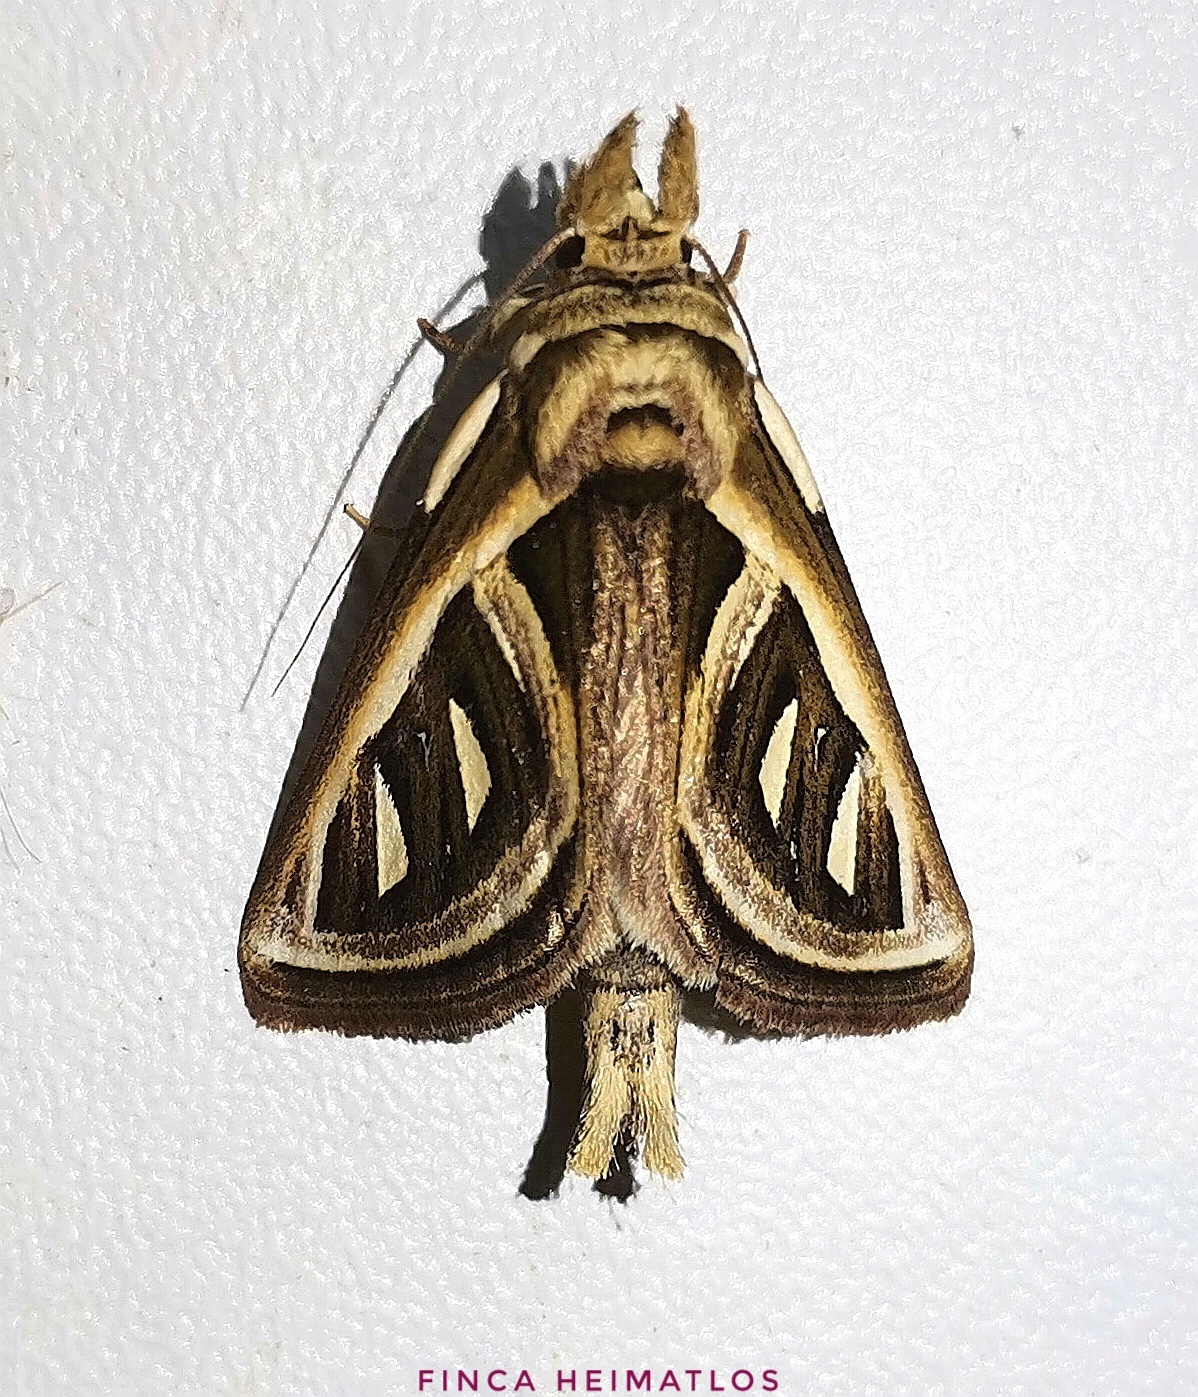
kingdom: Animalia
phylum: Arthropoda
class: Insecta
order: Lepidoptera
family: Notodontidae
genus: Ankale
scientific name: Ankale
